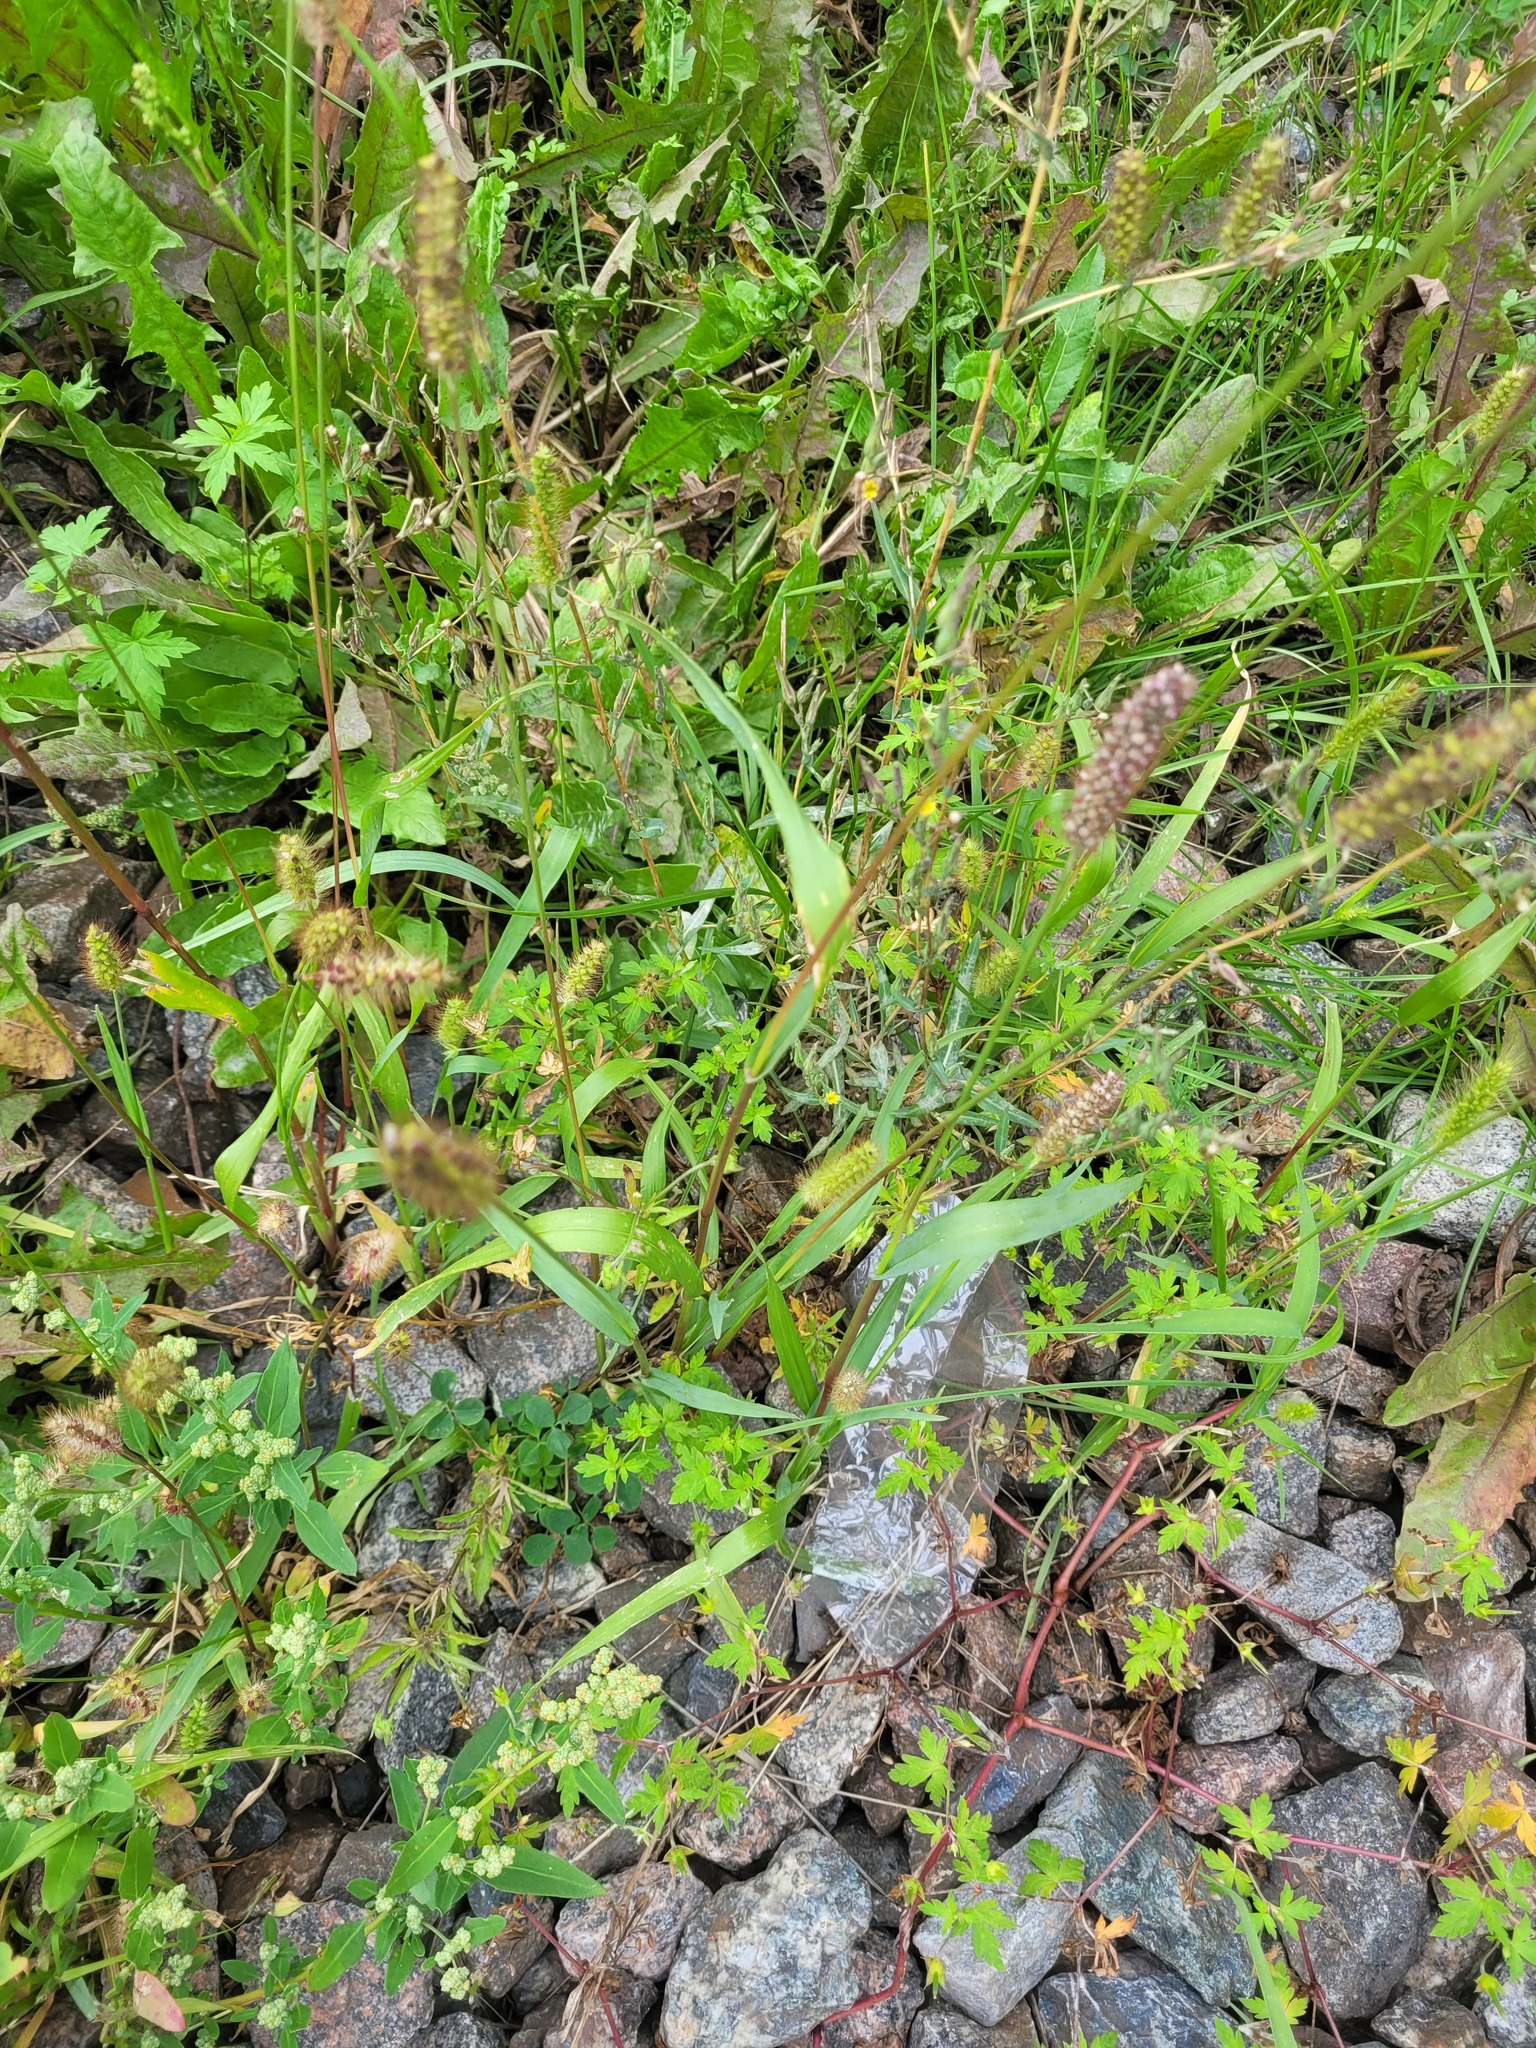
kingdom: Plantae
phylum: Tracheophyta
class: Liliopsida
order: Poales
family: Poaceae
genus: Setaria
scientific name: Setaria pumila
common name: Yellow bristle-grass
